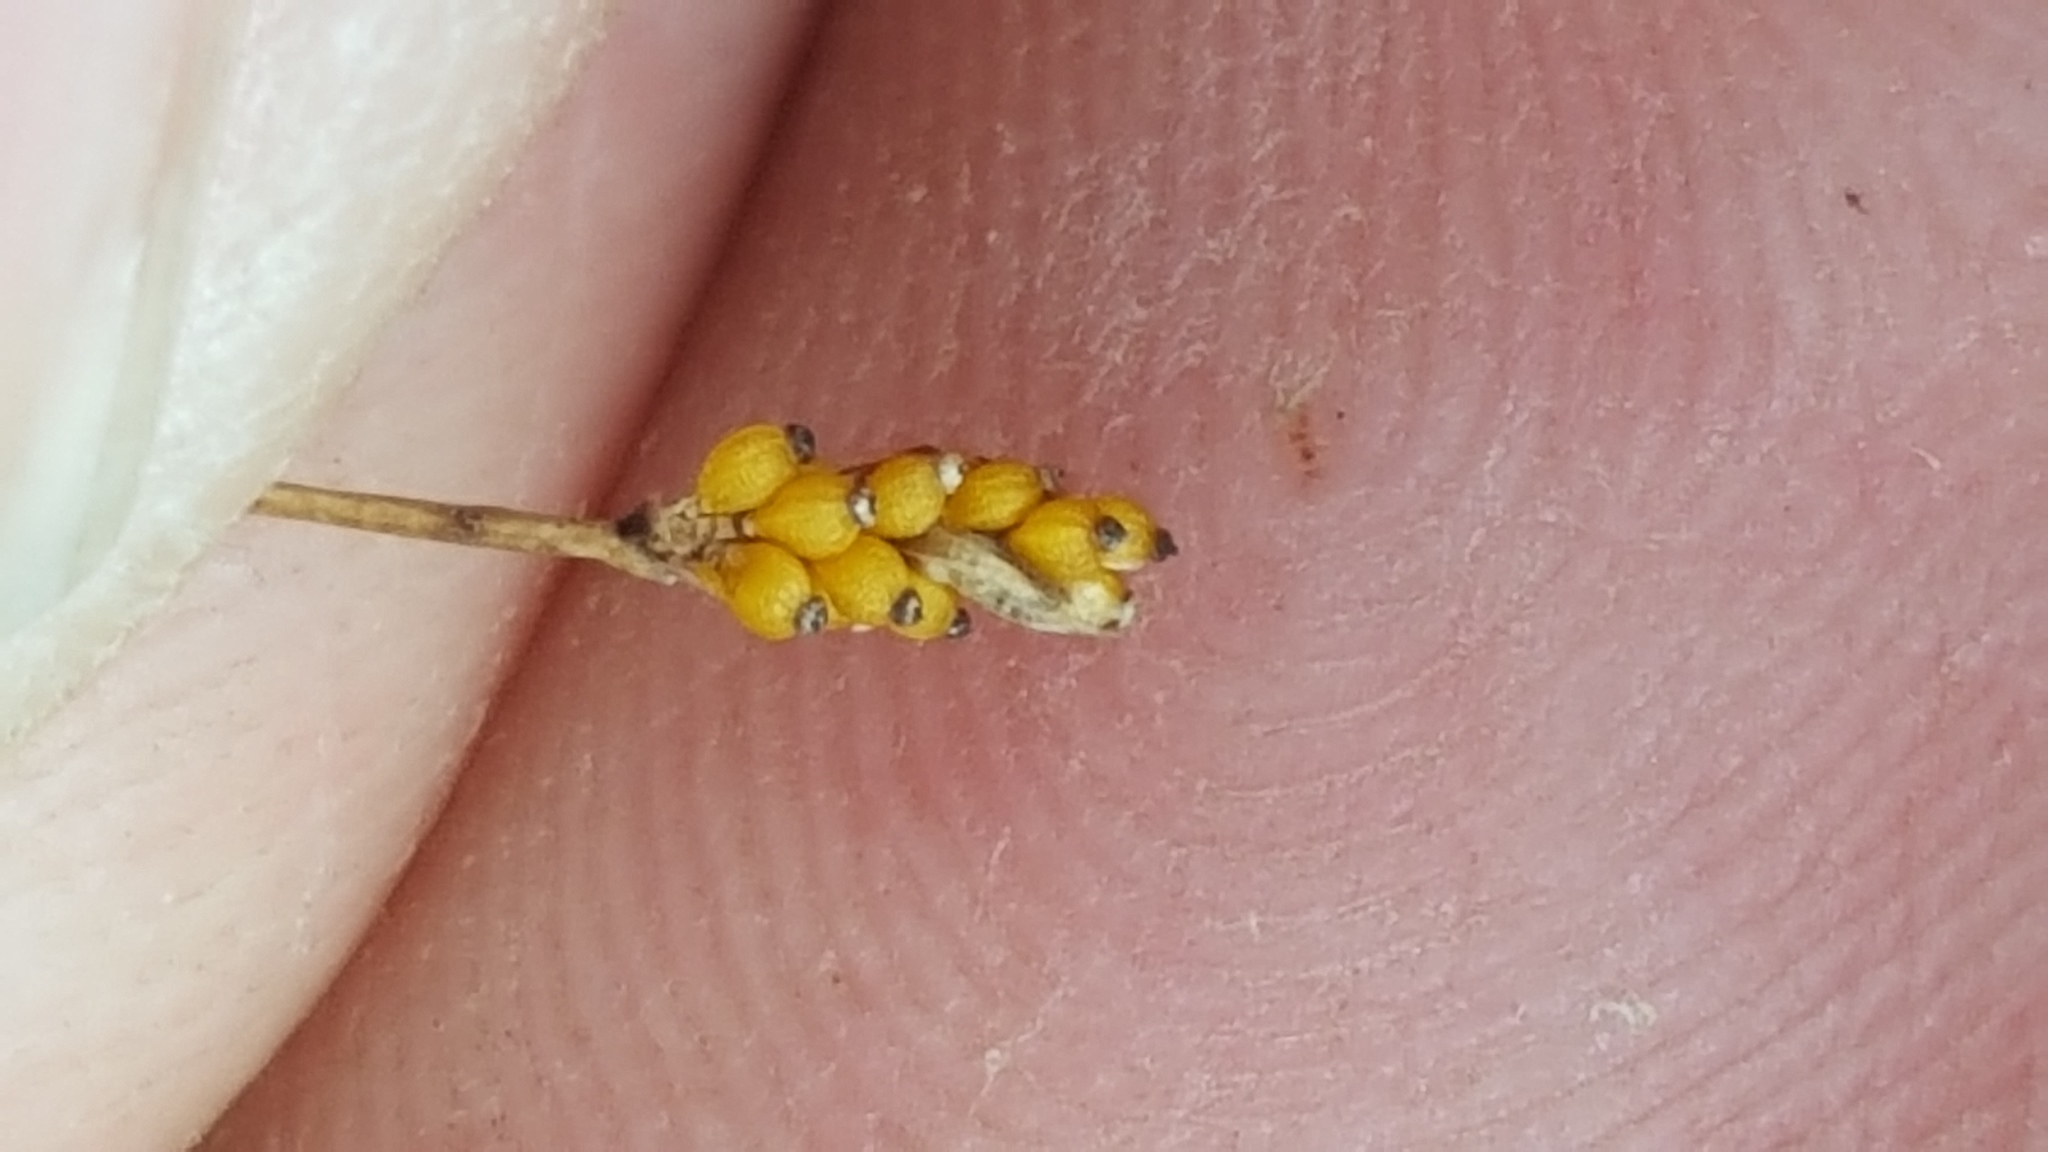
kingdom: Plantae
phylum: Tracheophyta
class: Liliopsida
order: Poales
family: Cyperaceae
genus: Eleocharis
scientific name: Eleocharis nitida
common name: Neat spikerush
